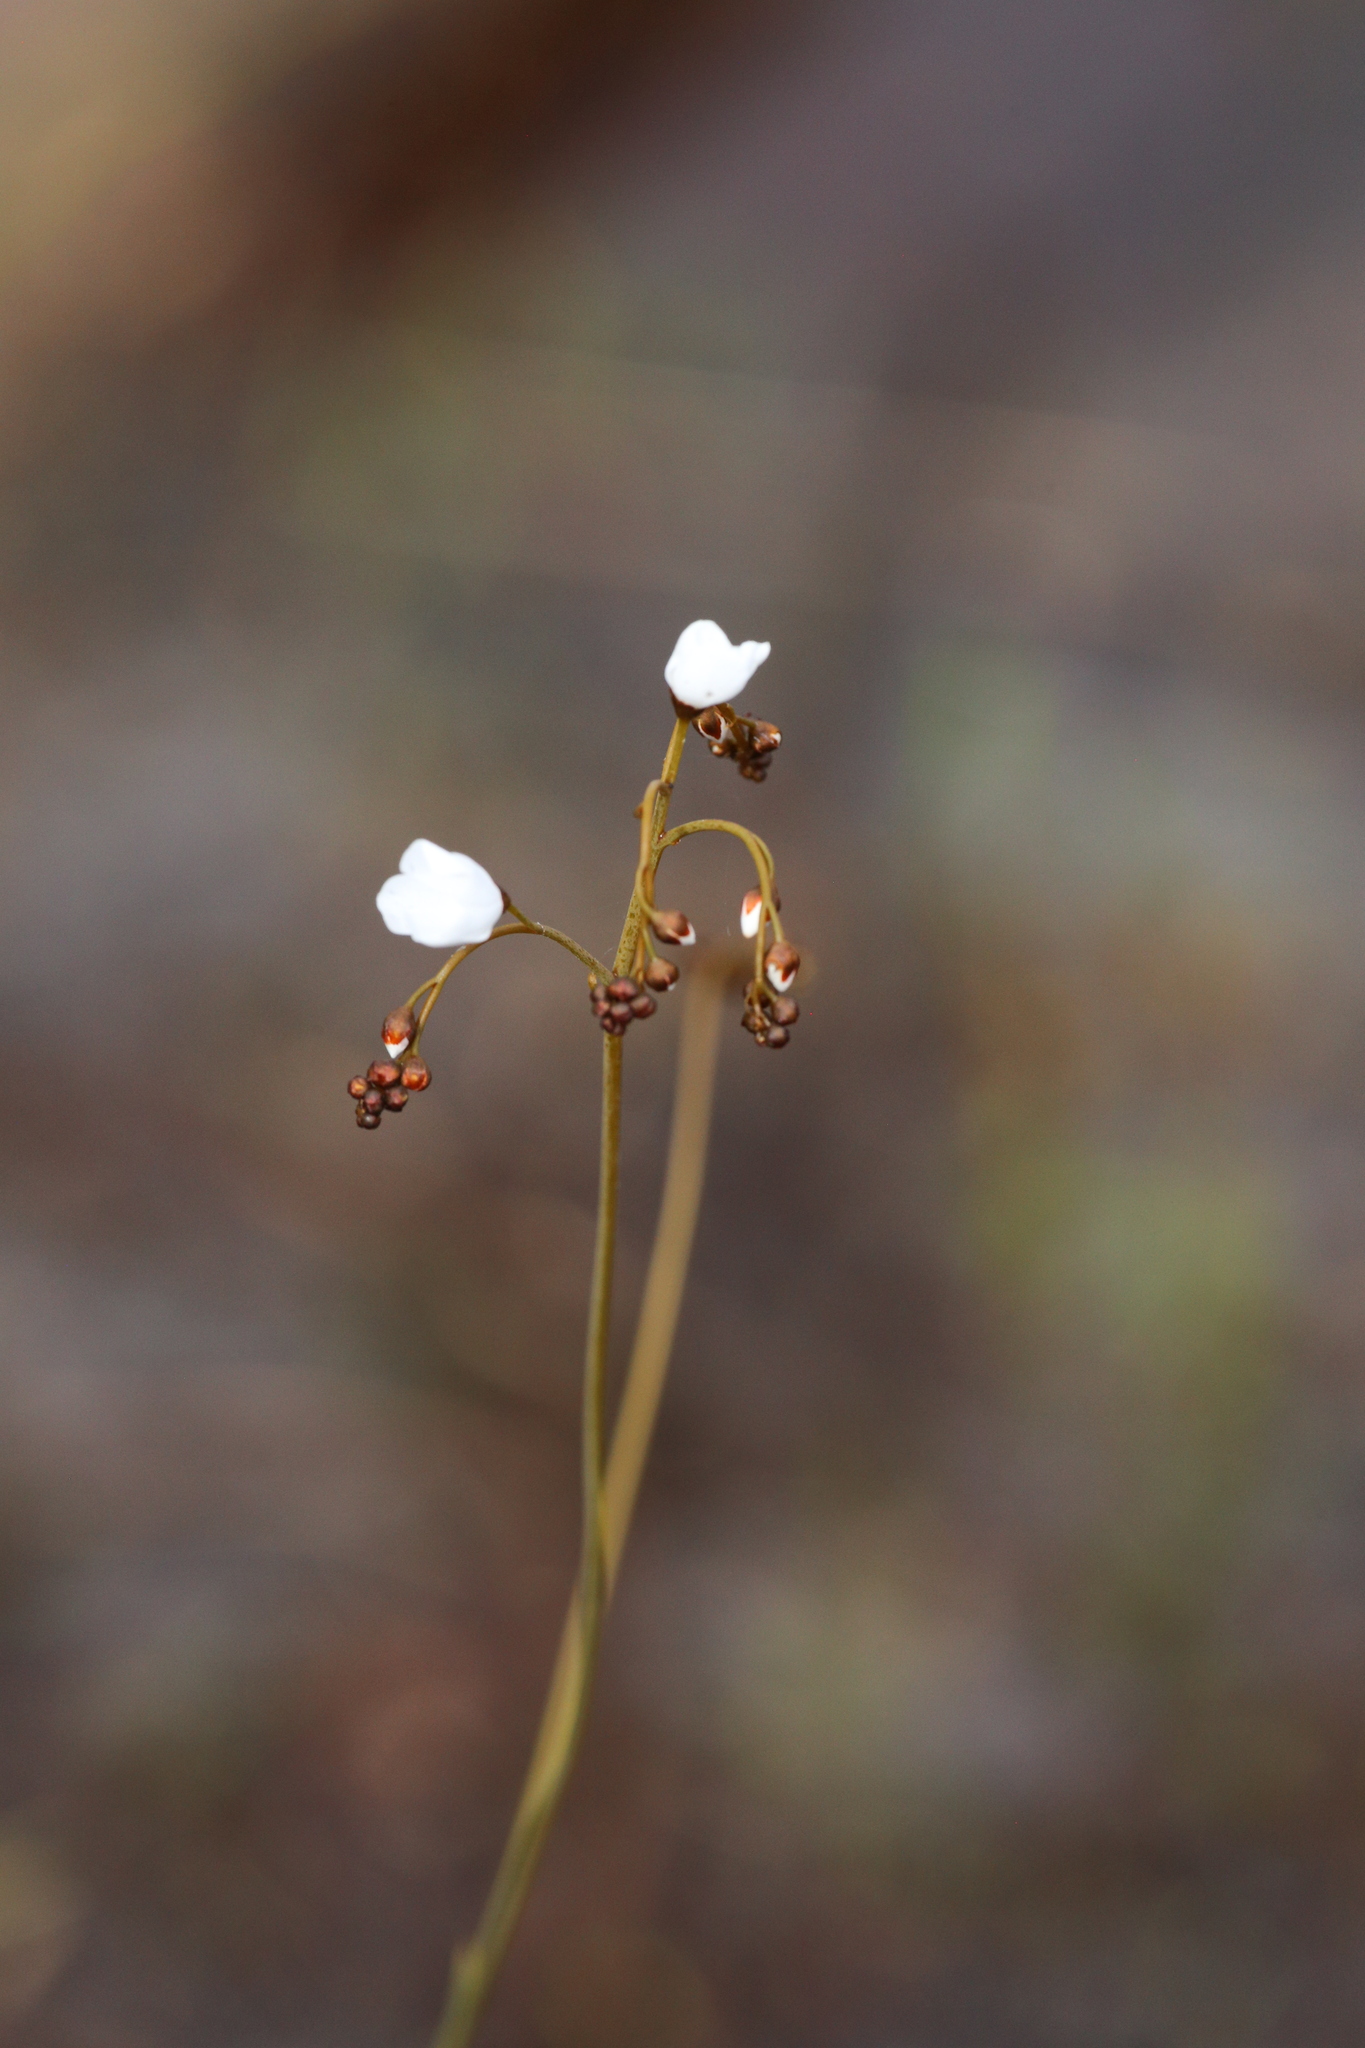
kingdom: Plantae
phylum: Tracheophyta
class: Magnoliopsida
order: Caryophyllales
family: Droseraceae
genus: Drosera
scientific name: Drosera gigantea
